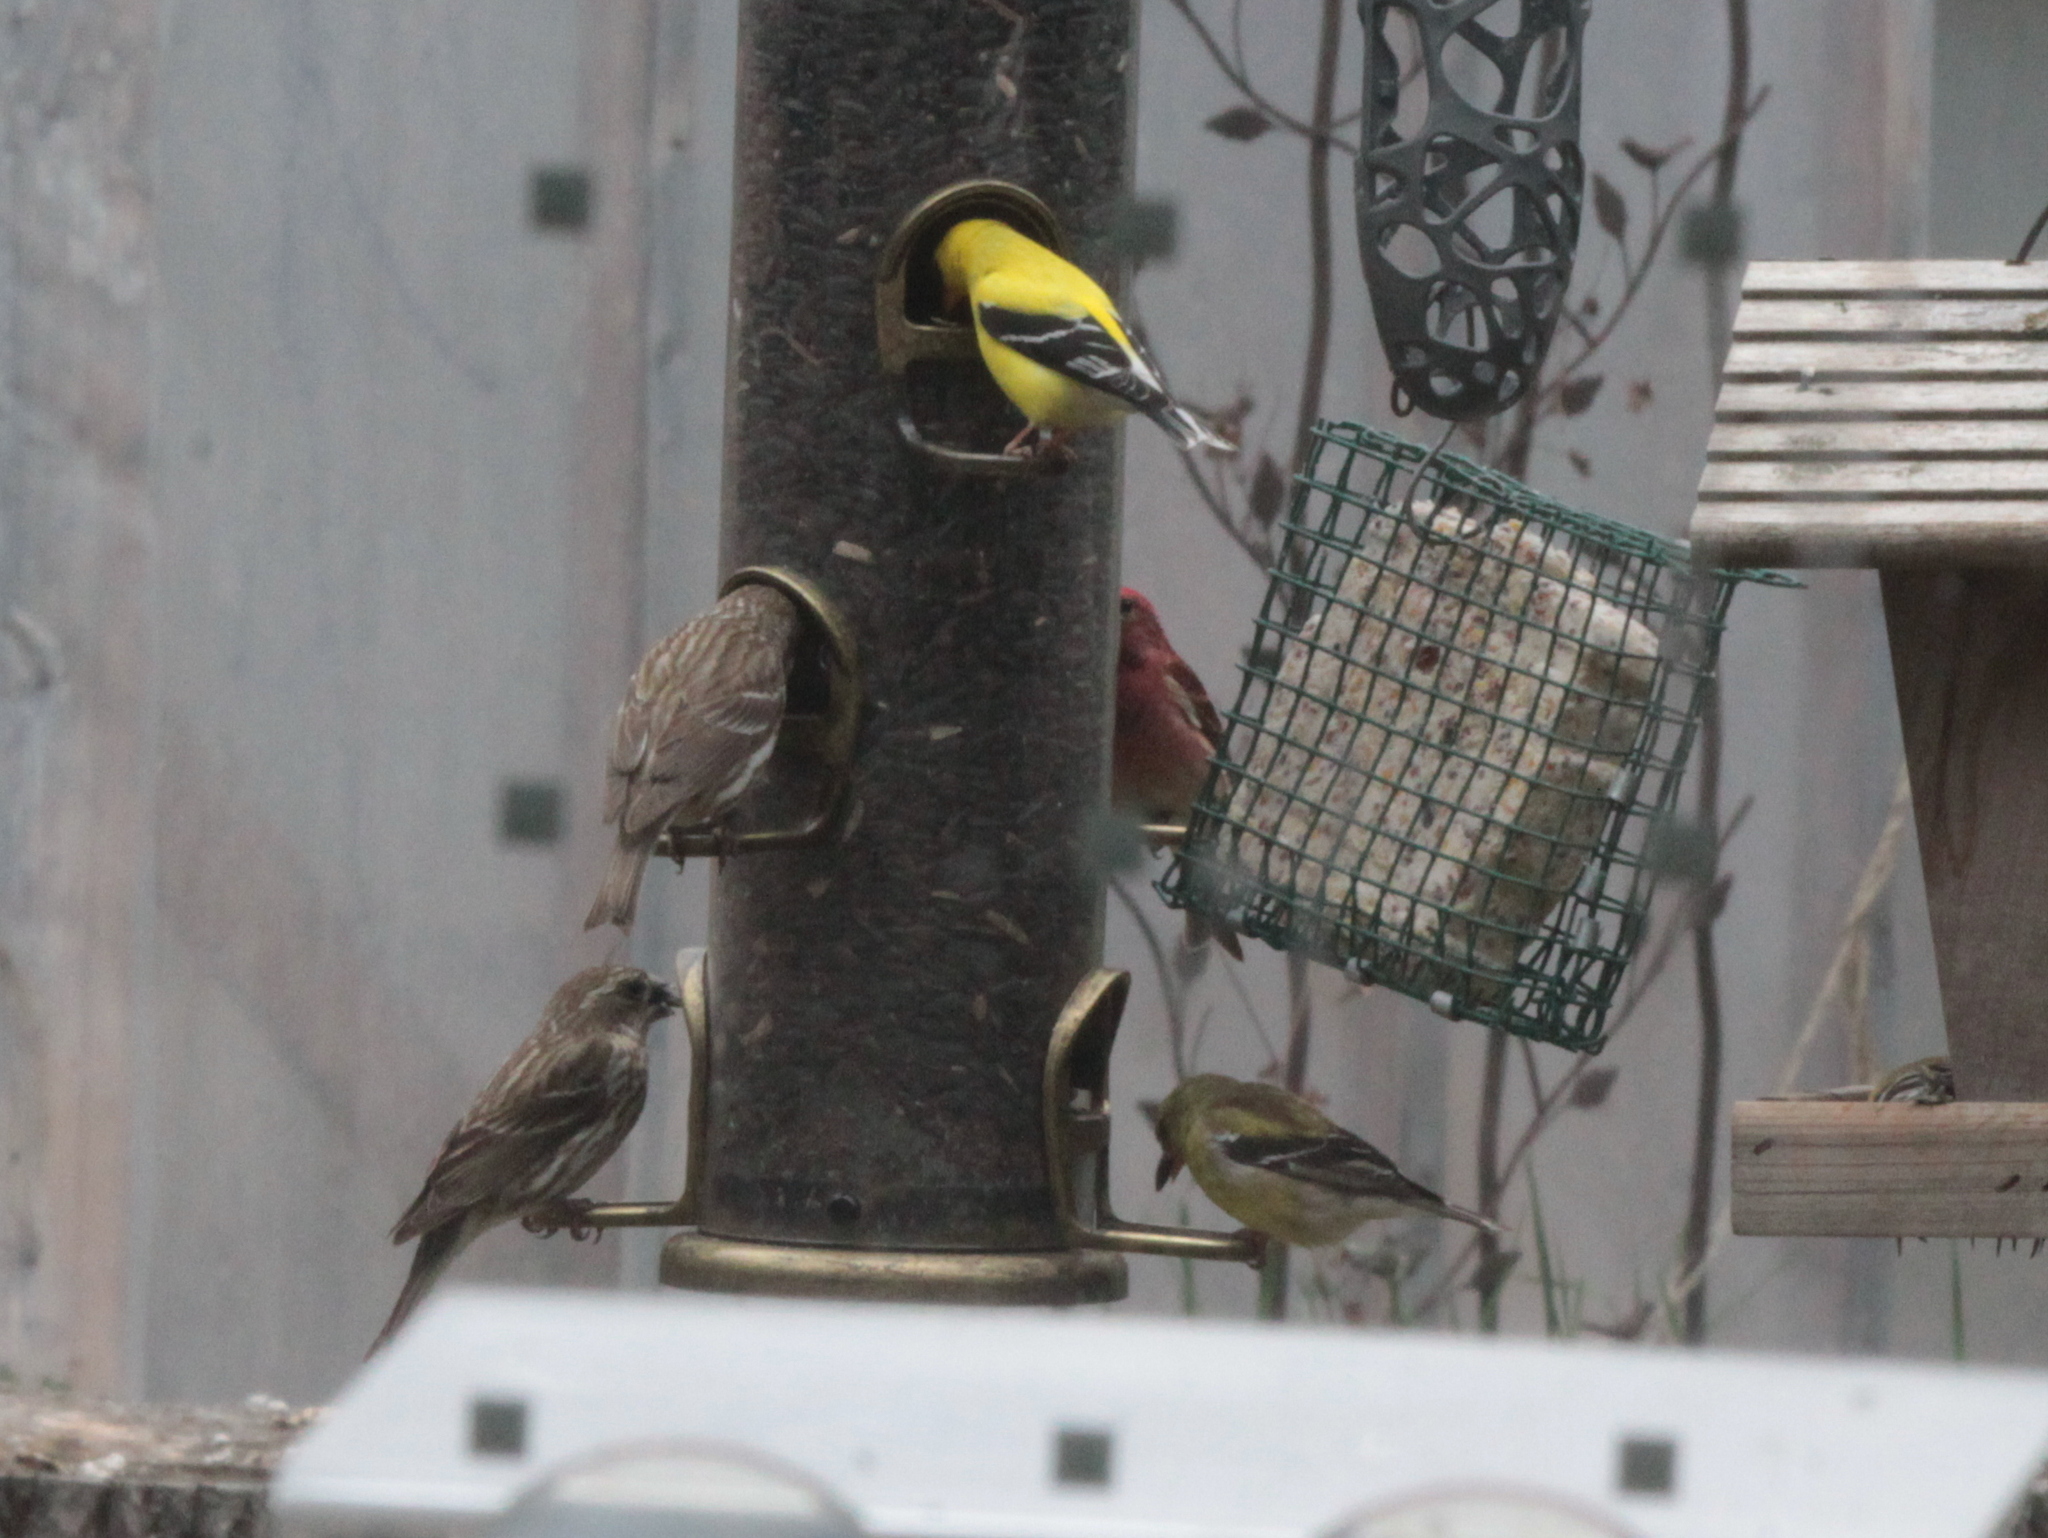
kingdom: Animalia
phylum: Chordata
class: Aves
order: Passeriformes
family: Fringillidae
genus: Haemorhous
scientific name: Haemorhous purpureus
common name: Purple finch
